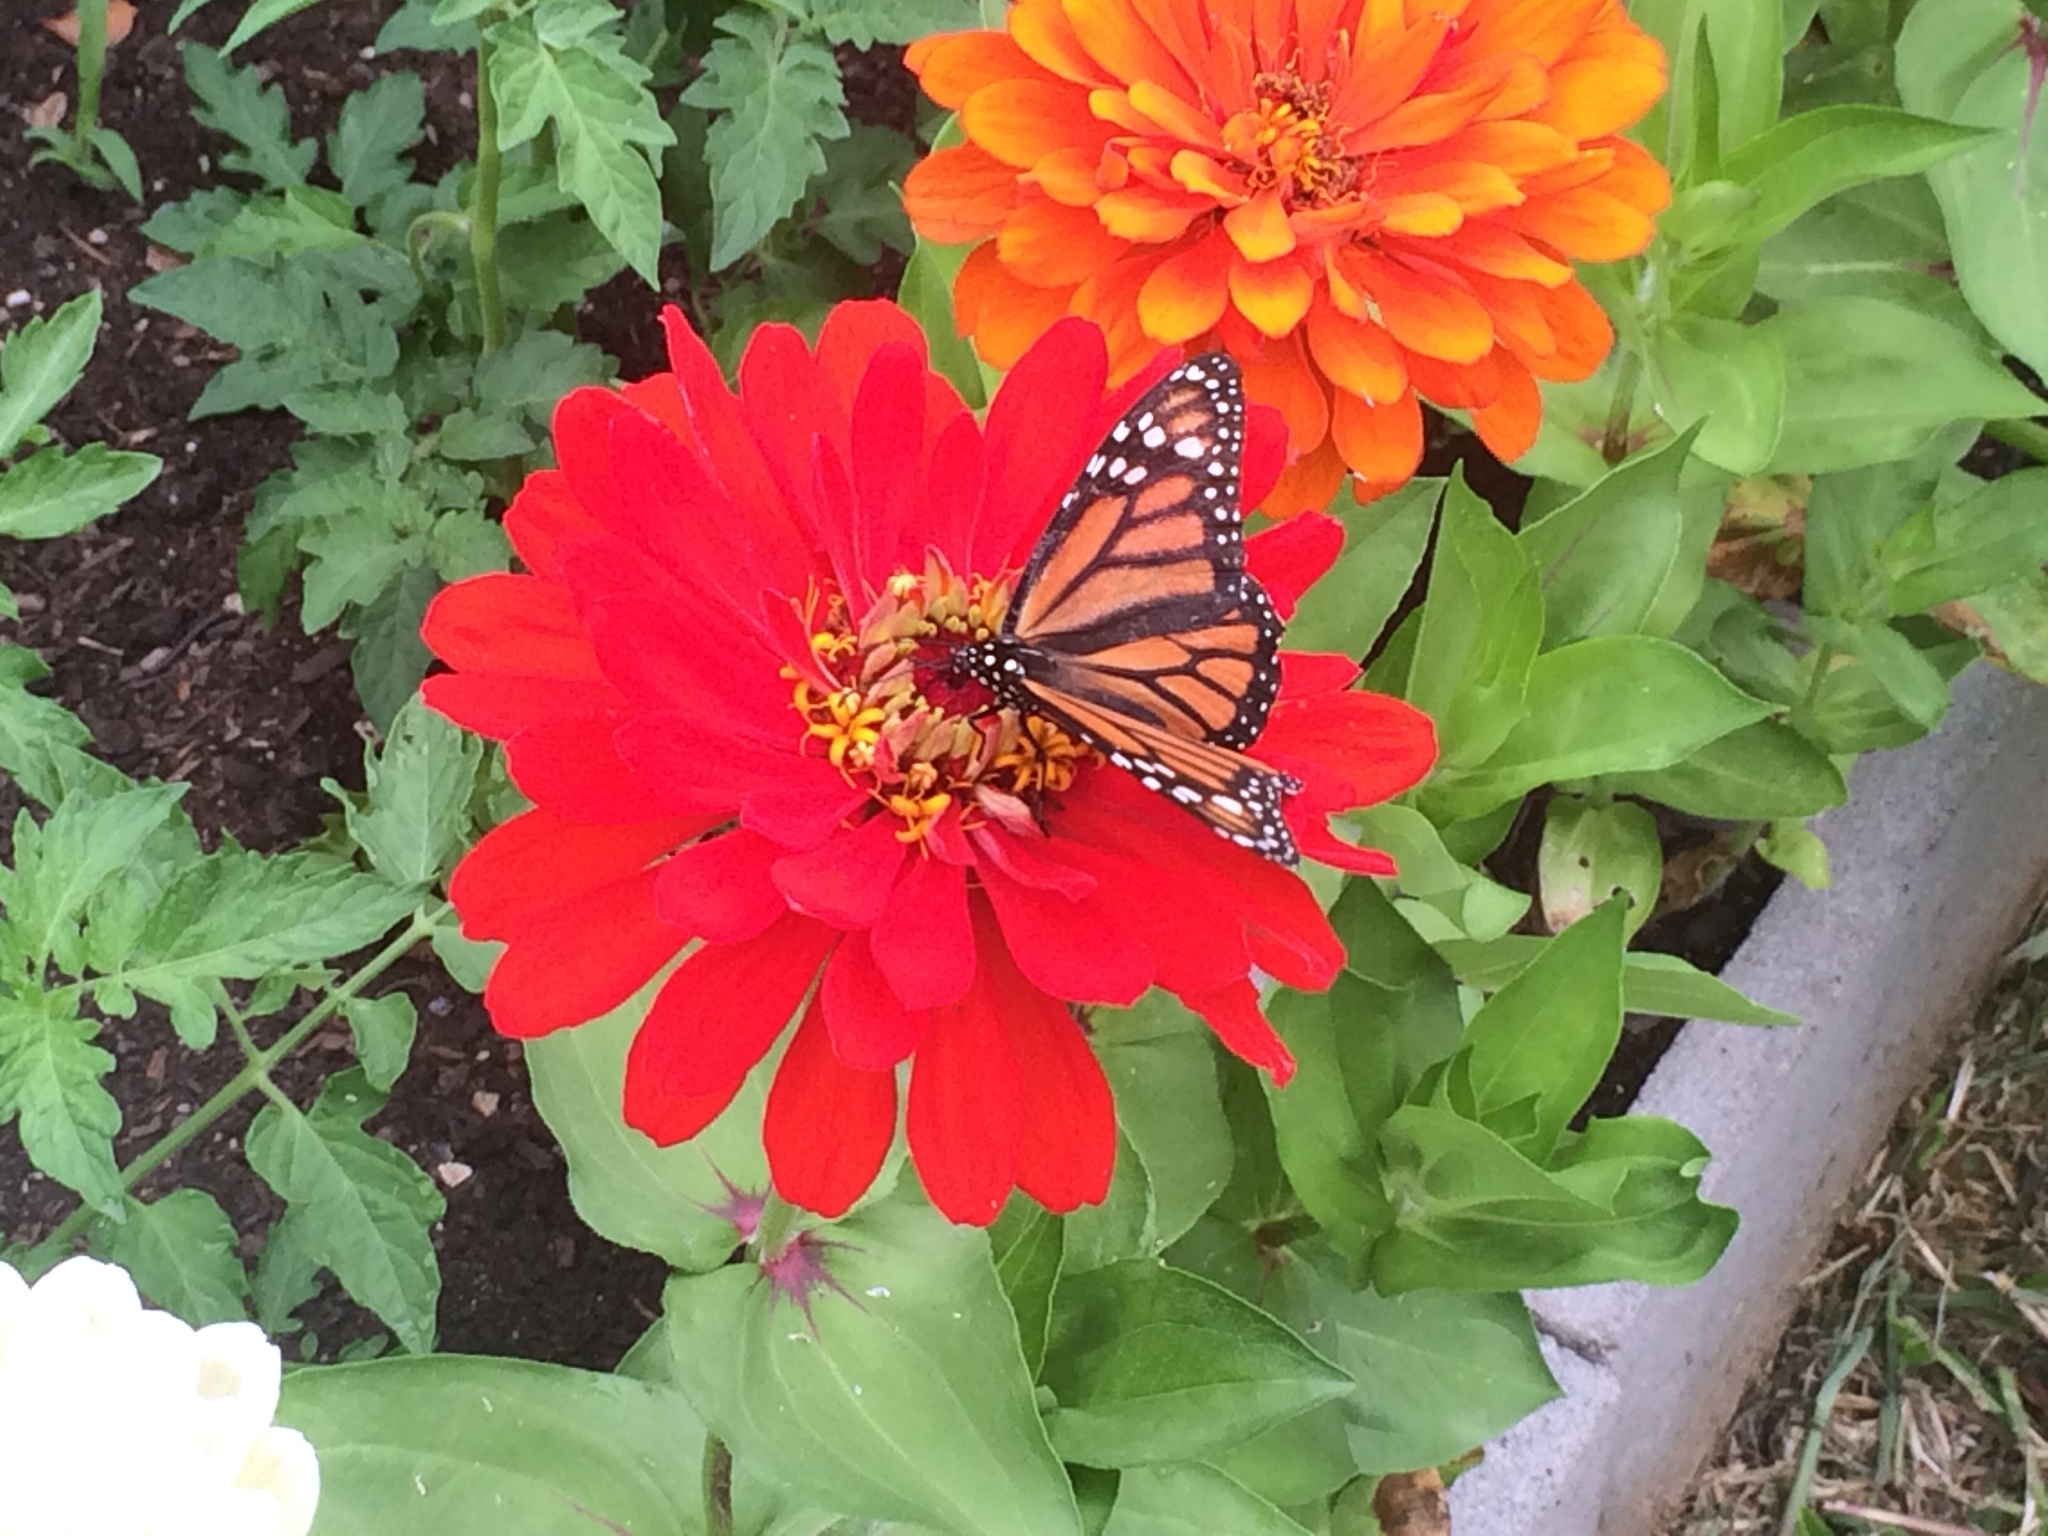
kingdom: Animalia
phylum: Arthropoda
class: Insecta
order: Lepidoptera
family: Nymphalidae
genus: Danaus
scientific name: Danaus plexippus
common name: Monarch
